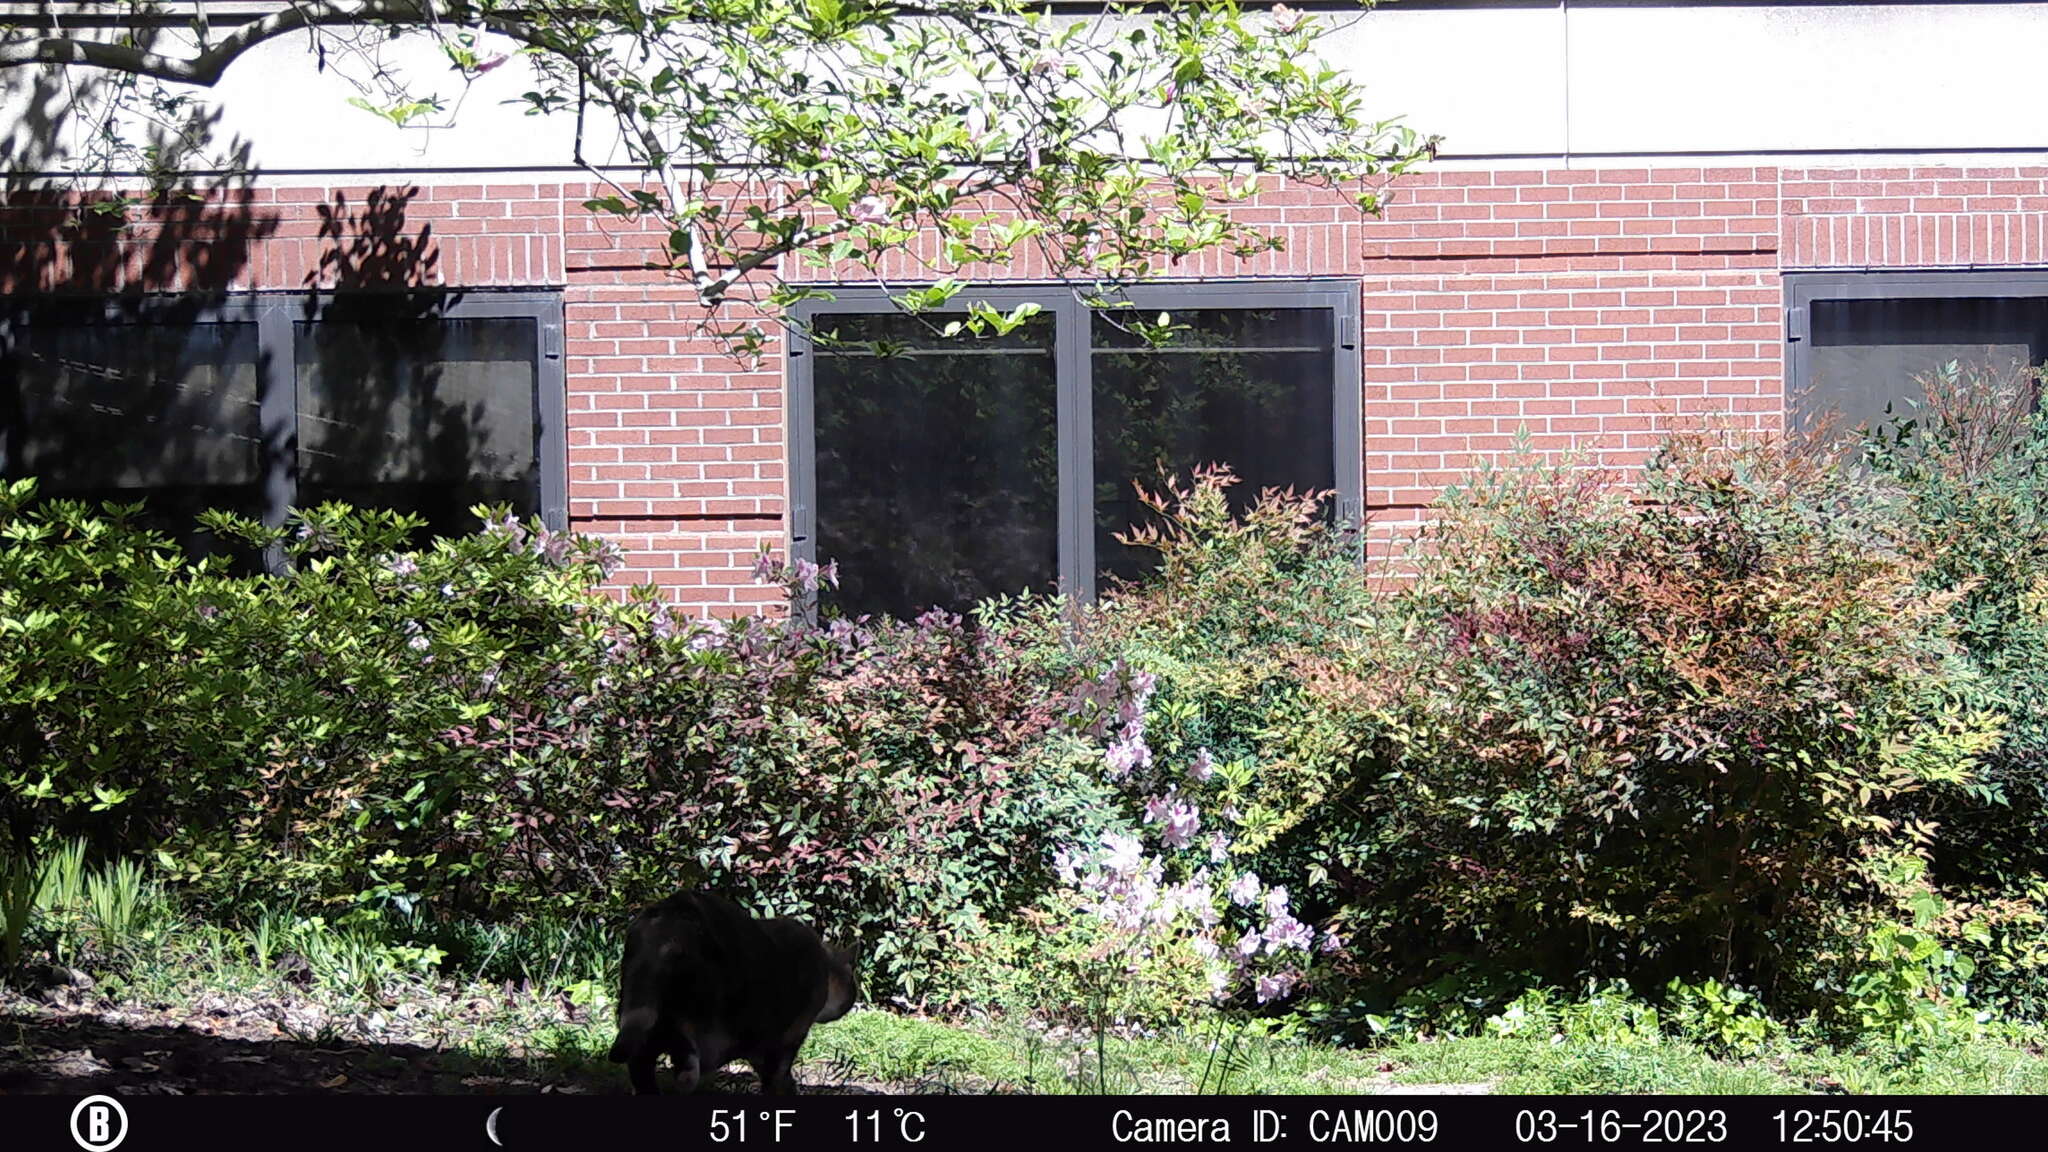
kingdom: Animalia
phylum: Chordata
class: Mammalia
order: Carnivora
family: Felidae
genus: Felis
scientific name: Felis catus
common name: Domestic cat
